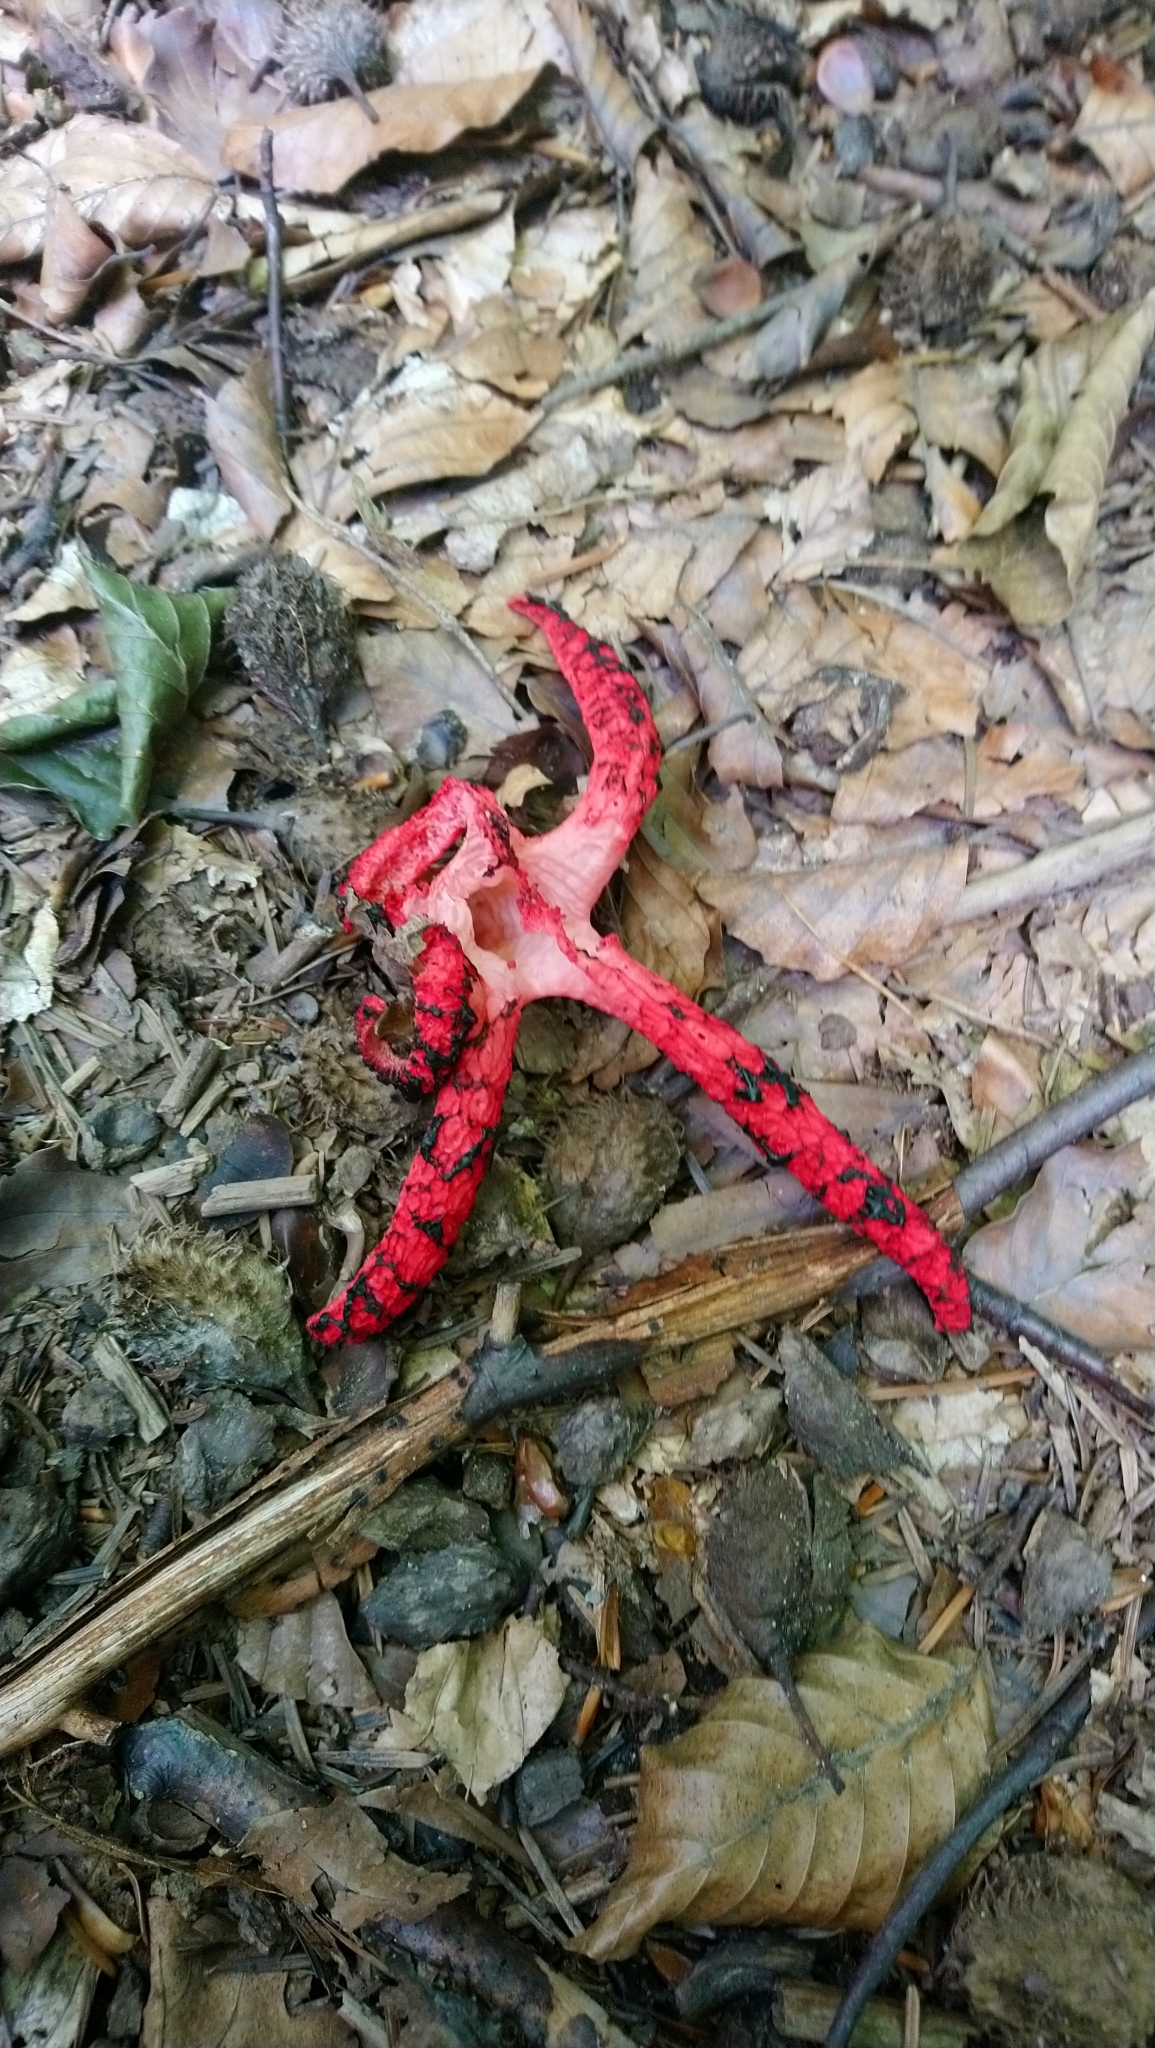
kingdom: Fungi
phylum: Basidiomycota
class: Agaricomycetes
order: Phallales
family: Phallaceae
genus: Clathrus
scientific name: Clathrus archeri
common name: Devil's fingers
